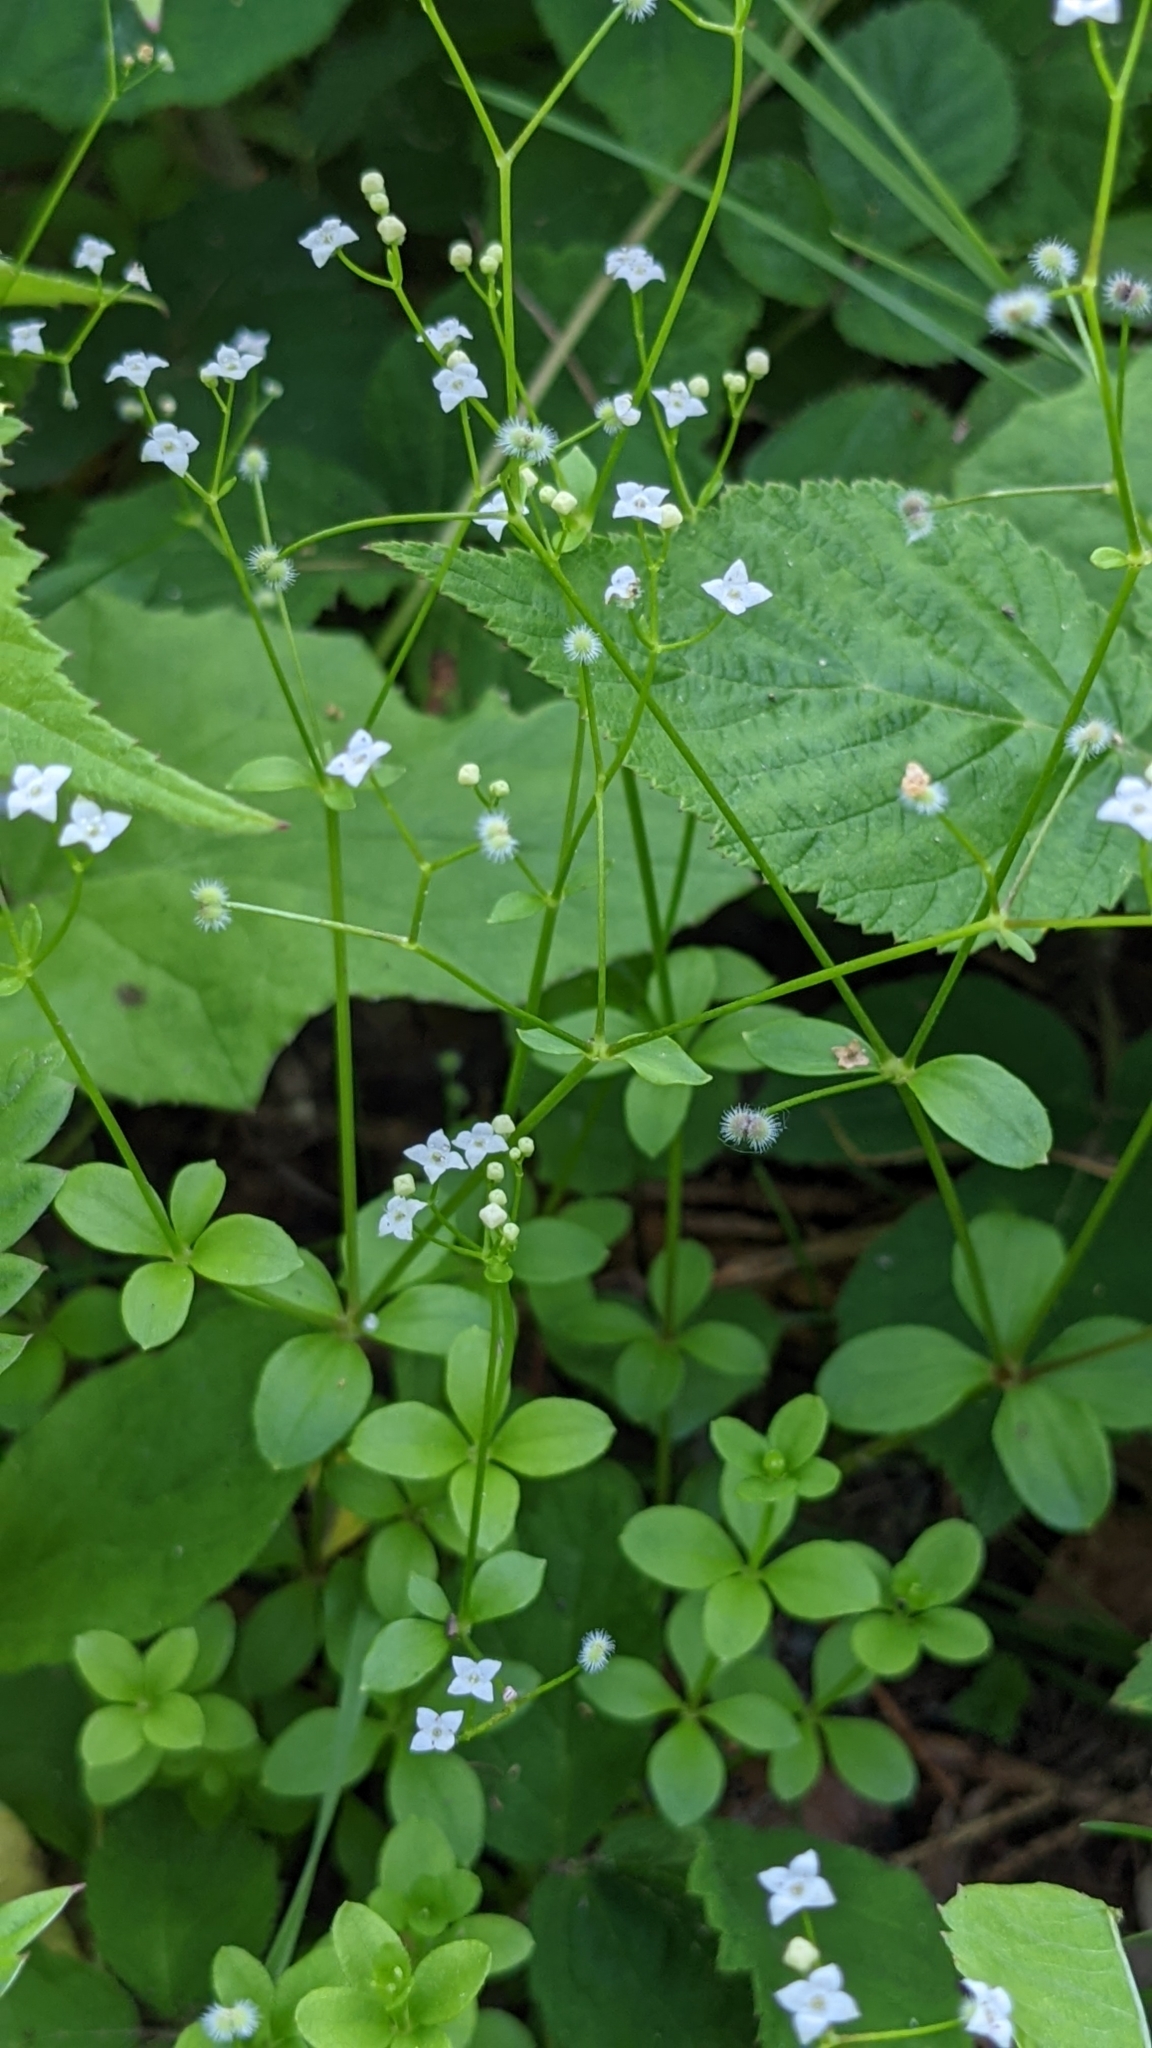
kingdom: Plantae
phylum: Tracheophyta
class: Magnoliopsida
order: Gentianales
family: Rubiaceae
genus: Galium
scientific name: Galium rotundifolium
